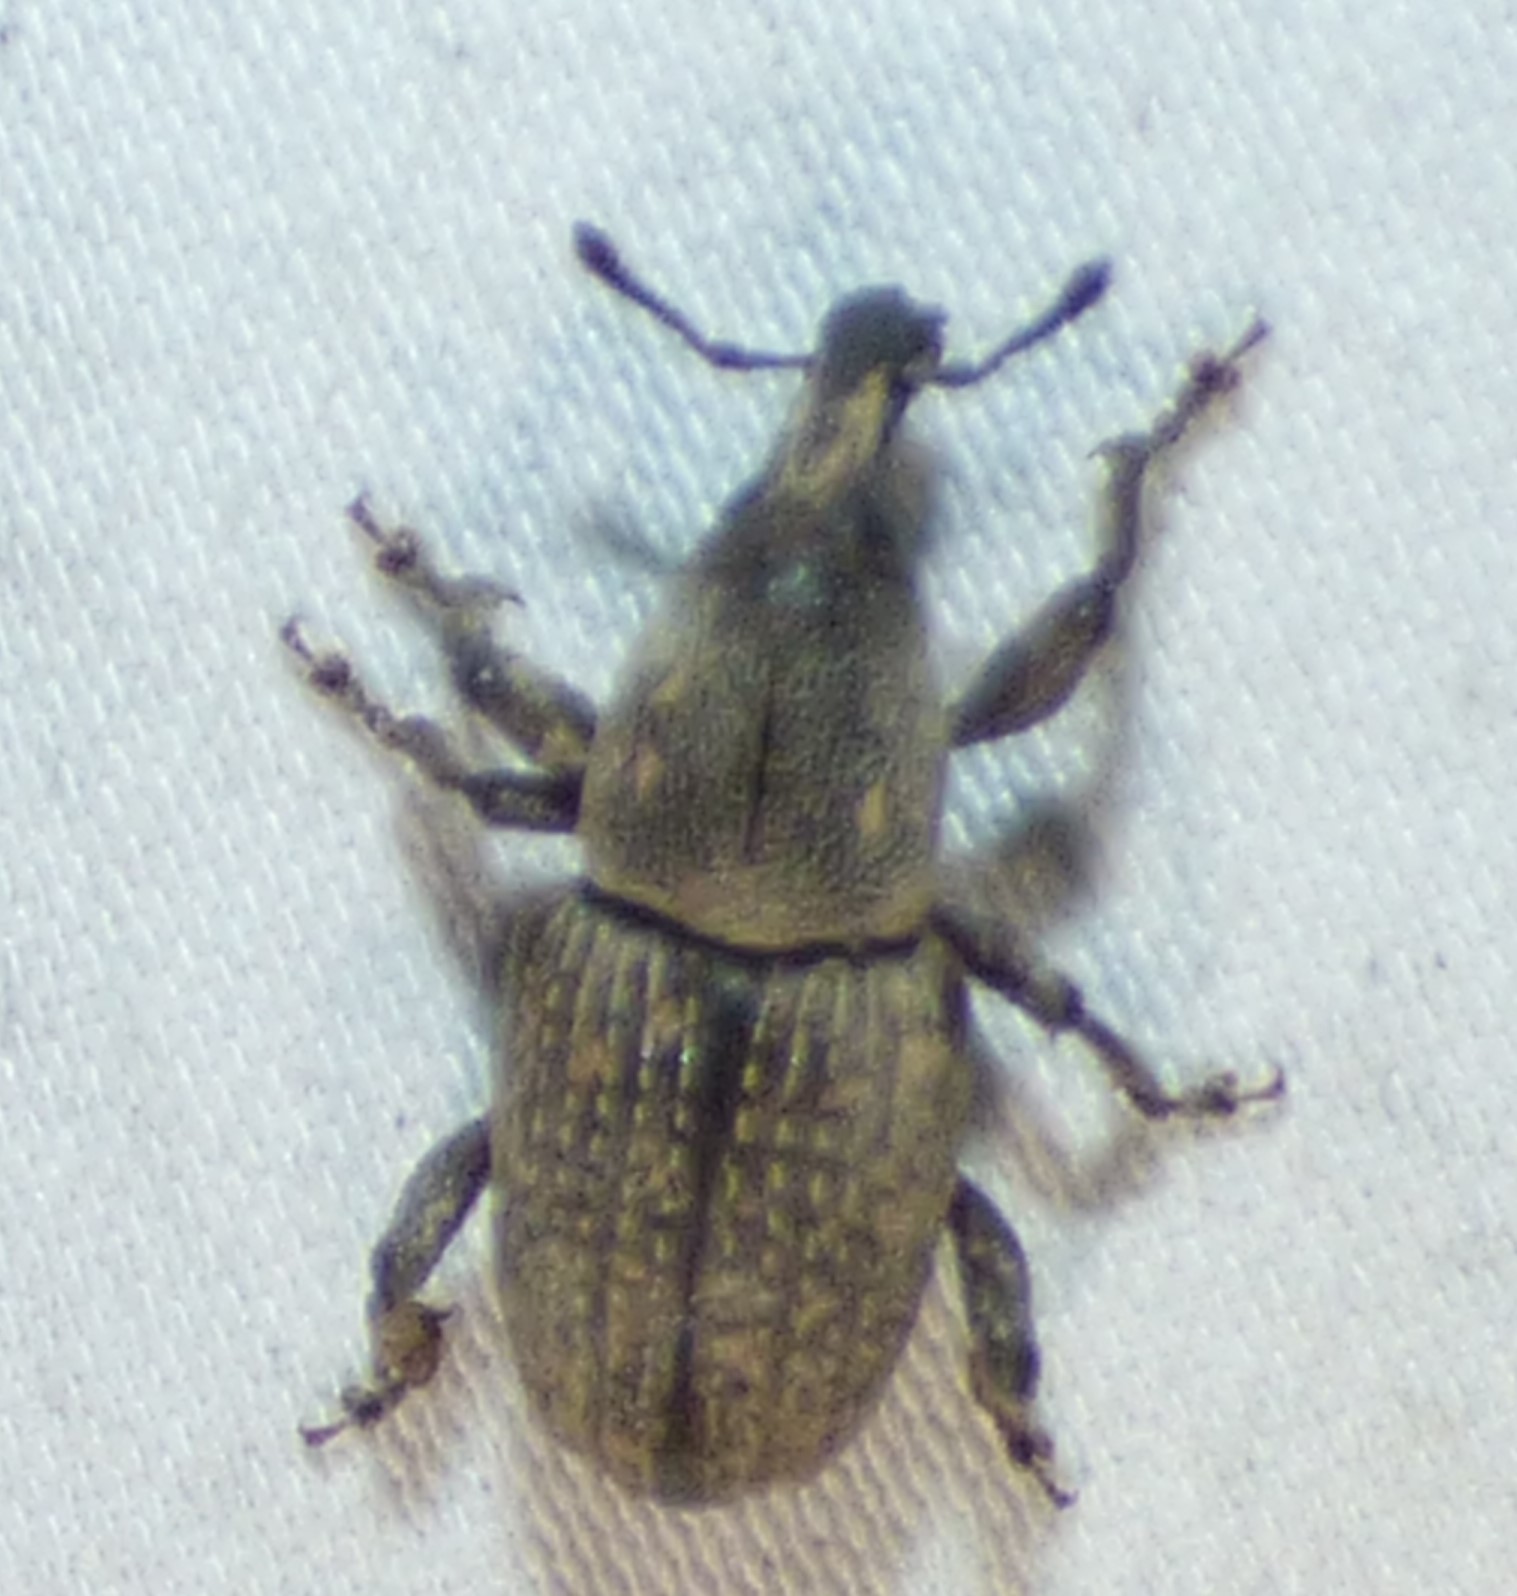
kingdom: Animalia
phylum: Arthropoda
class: Insecta
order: Coleoptera
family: Curculionidae
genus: Pachylobius
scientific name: Pachylobius picivorus
